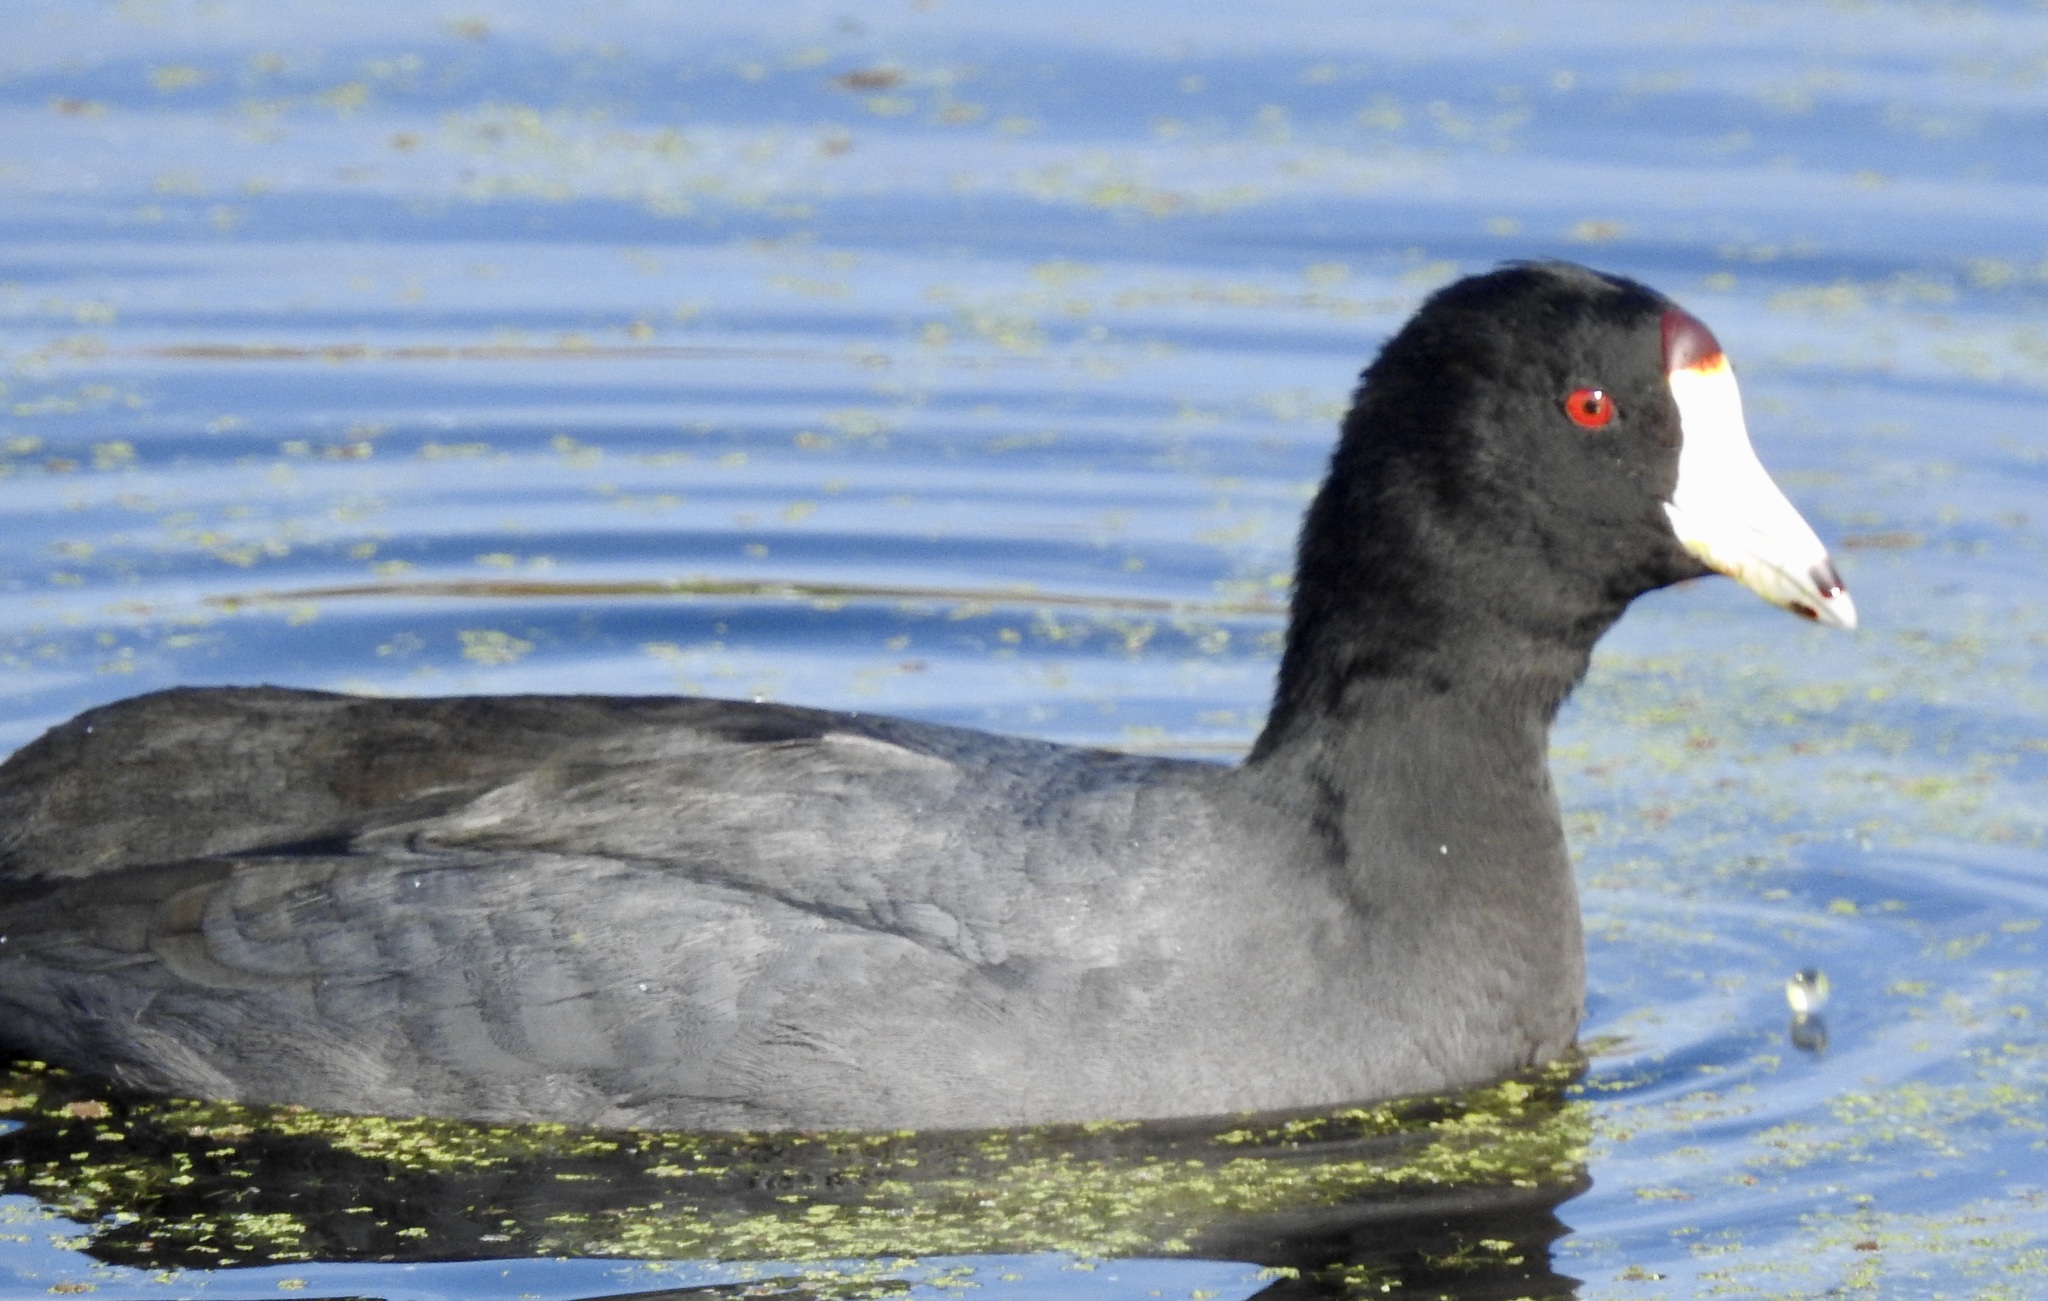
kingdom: Animalia
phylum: Chordata
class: Aves
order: Gruiformes
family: Rallidae
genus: Fulica
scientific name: Fulica americana
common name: American coot
